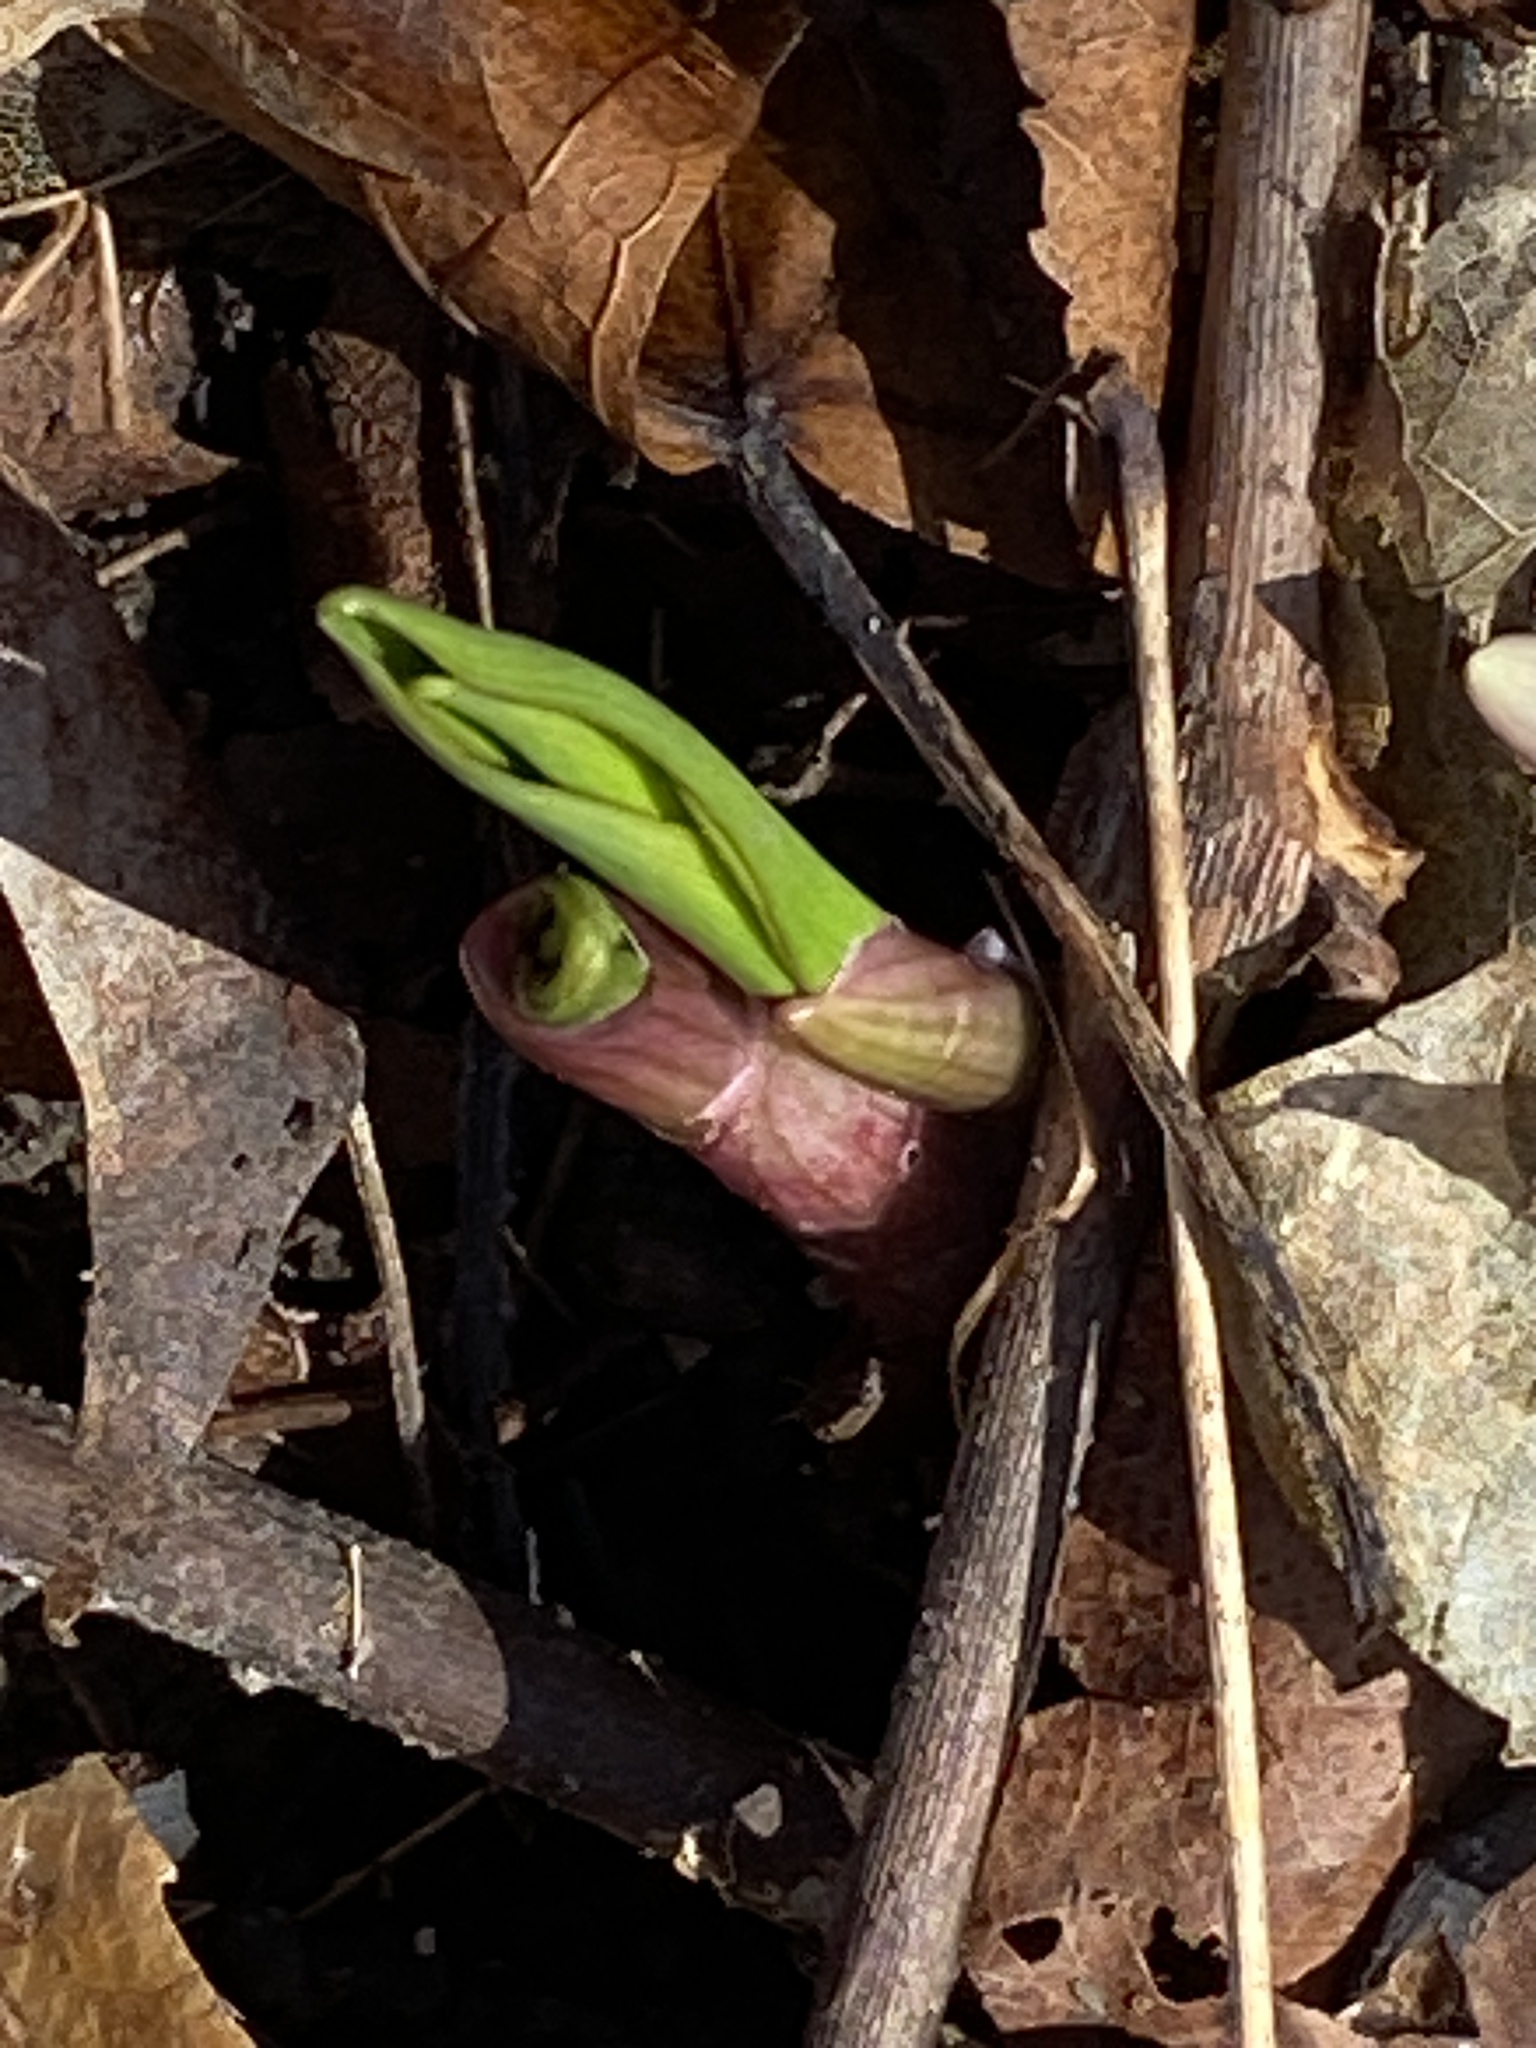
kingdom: Plantae
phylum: Tracheophyta
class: Liliopsida
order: Asparagales
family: Amaryllidaceae
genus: Allium
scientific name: Allium tricoccum
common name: Ramp
